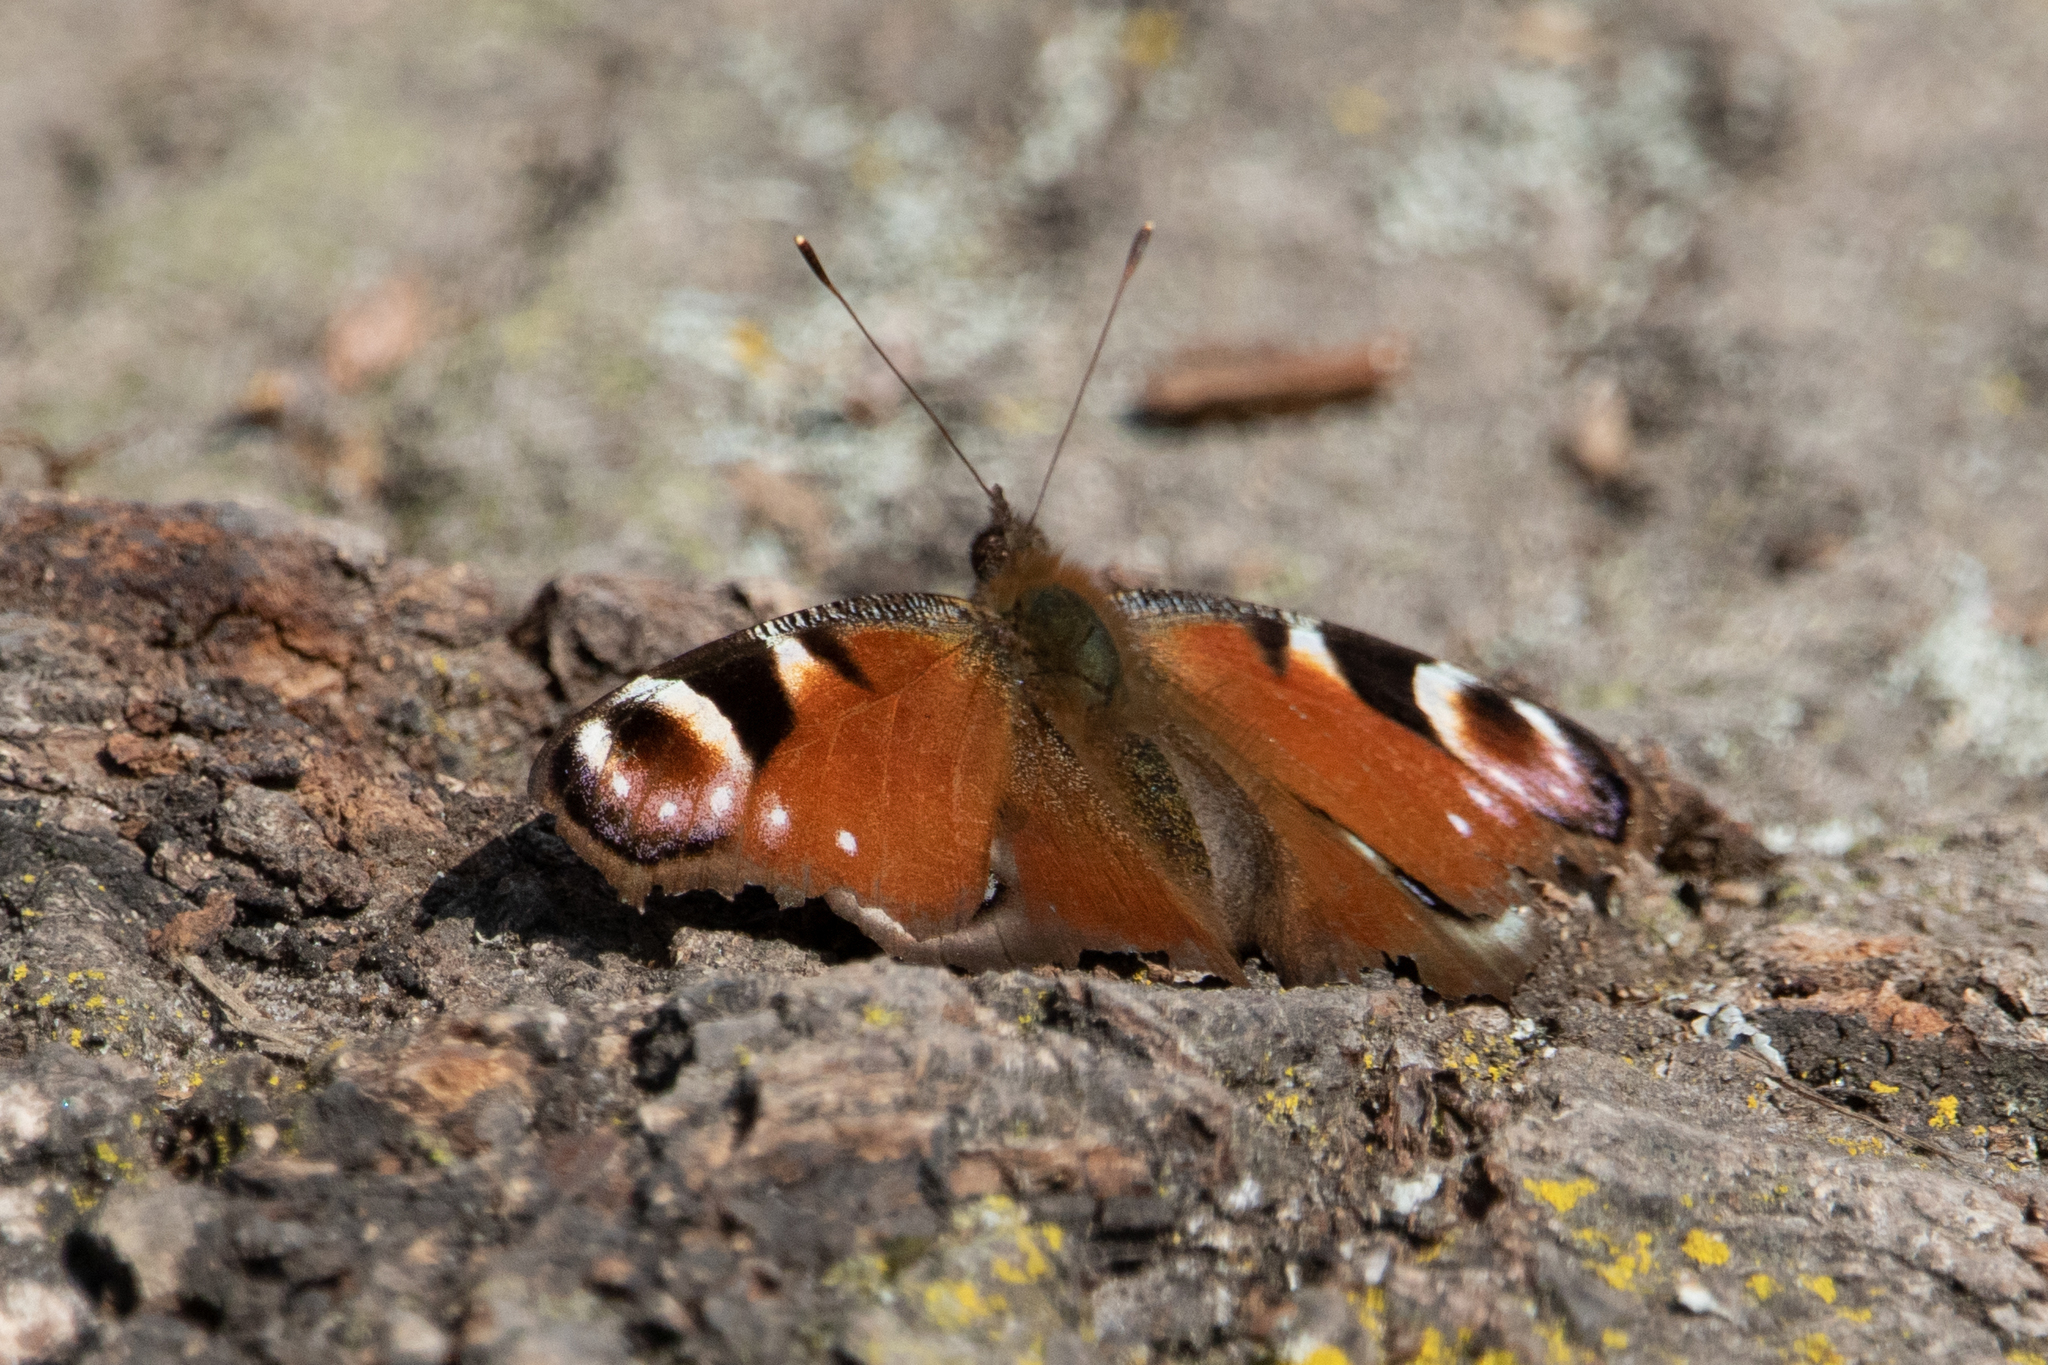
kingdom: Animalia
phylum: Arthropoda
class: Insecta
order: Lepidoptera
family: Nymphalidae
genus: Aglais
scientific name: Aglais io
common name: Peacock
